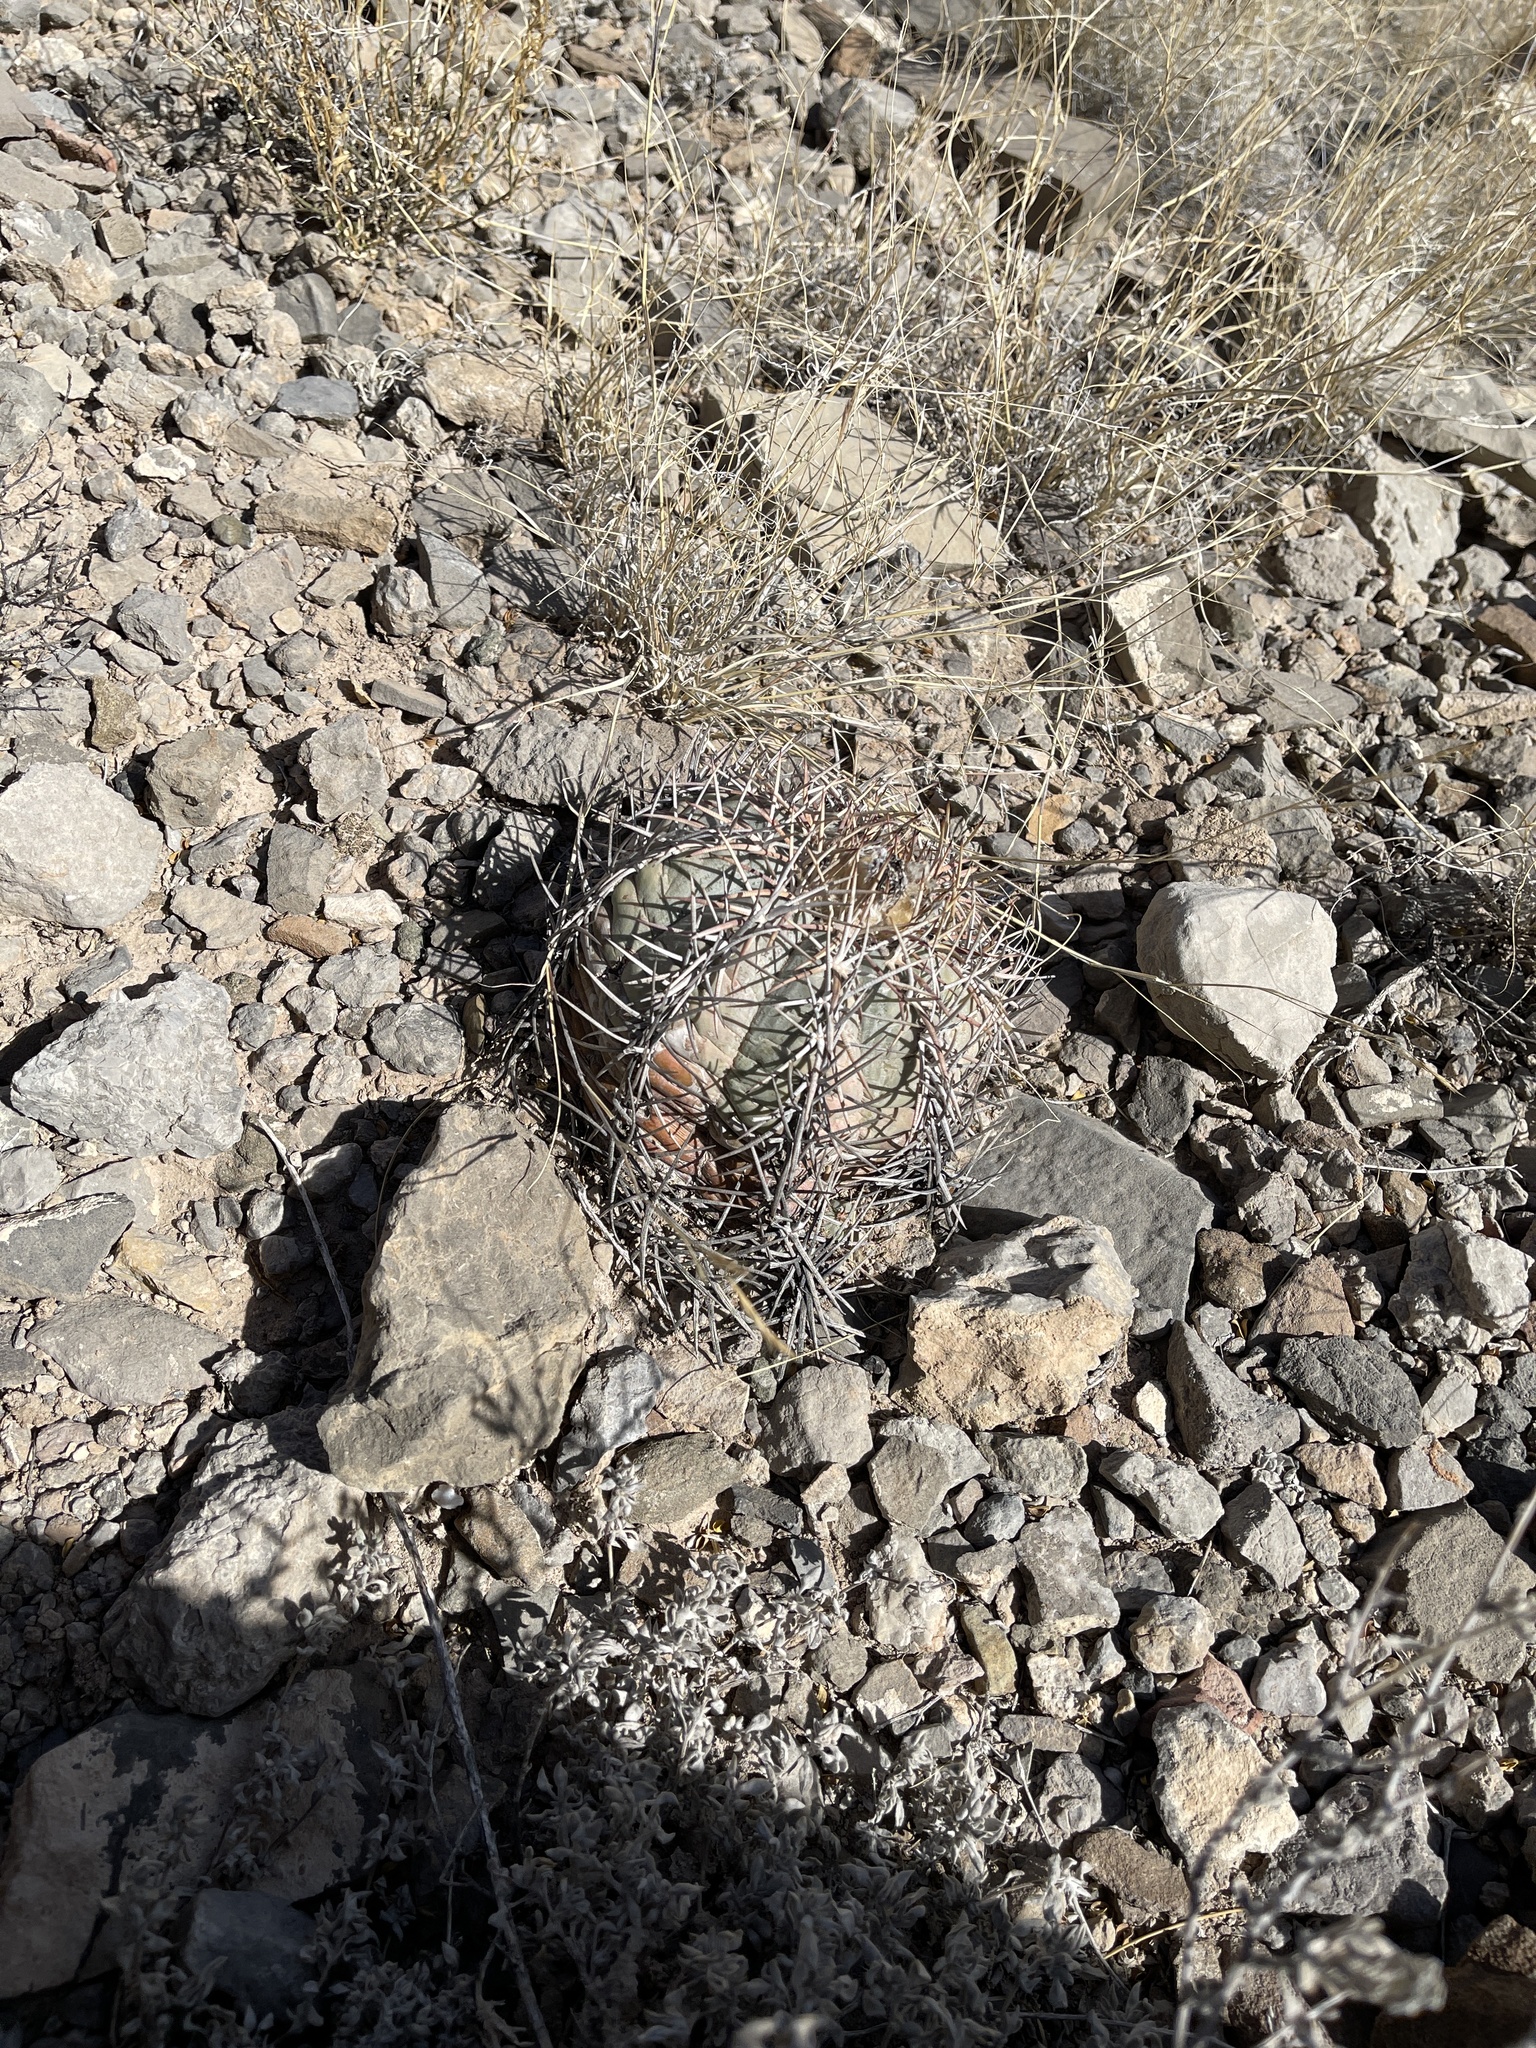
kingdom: Plantae
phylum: Tracheophyta
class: Magnoliopsida
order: Caryophyllales
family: Cactaceae
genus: Echinocactus
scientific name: Echinocactus horizonthalonius
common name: Devilshead
